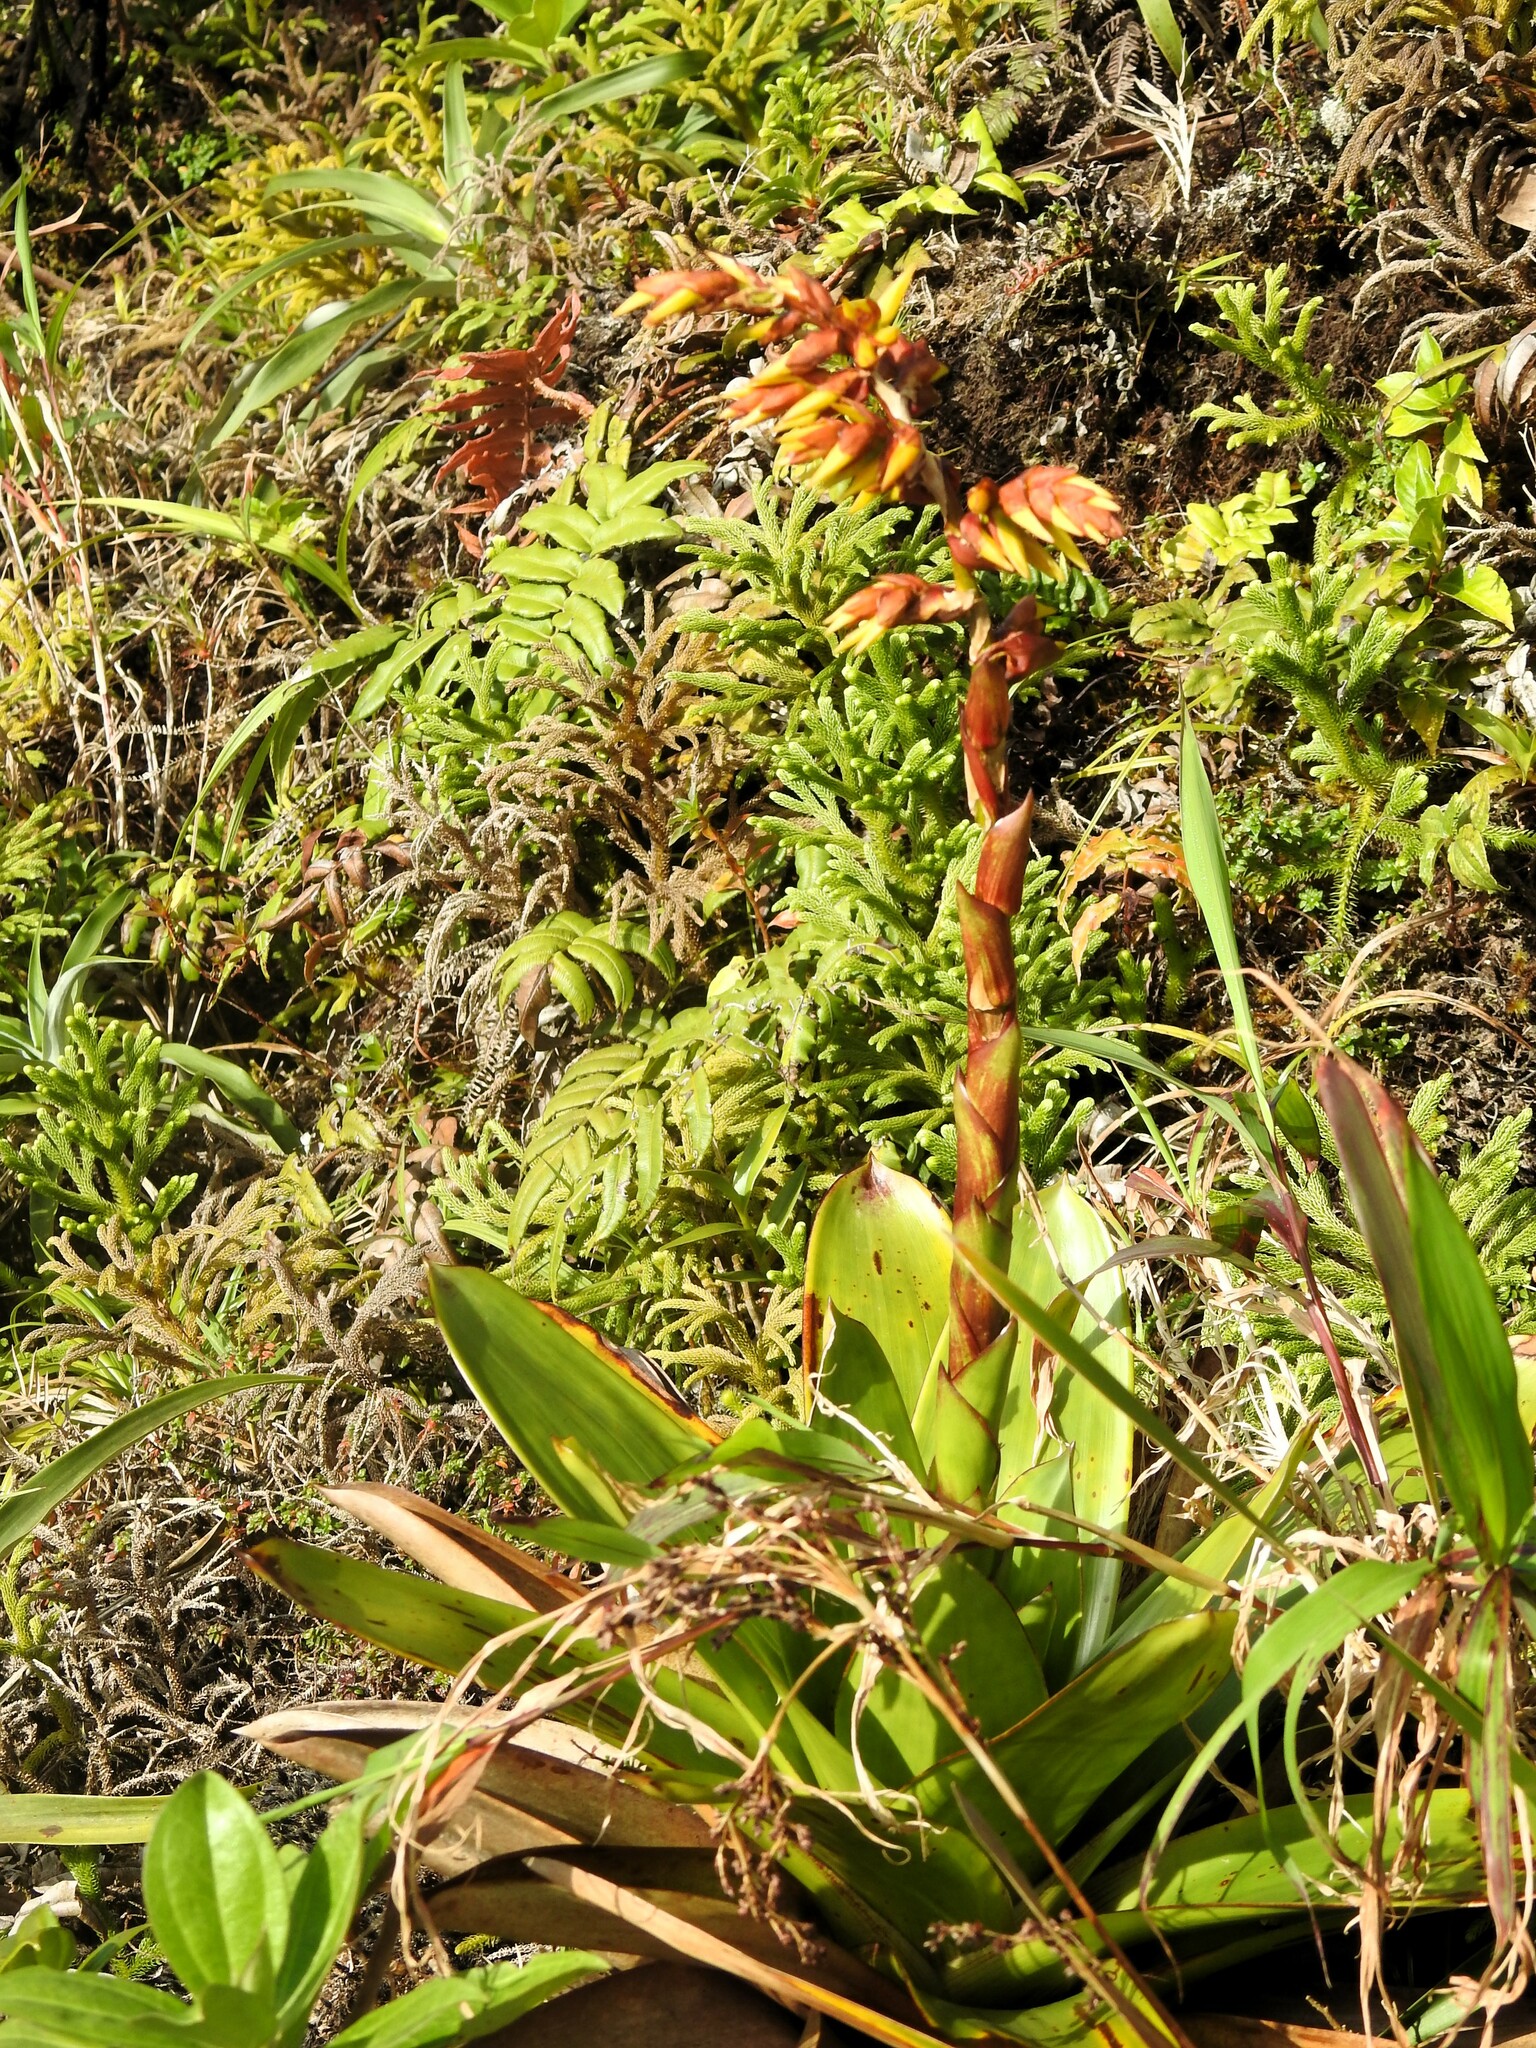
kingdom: Plantae
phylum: Tracheophyta
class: Liliopsida
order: Poales
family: Bromeliaceae
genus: Guzmania
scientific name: Guzmania plumieri
